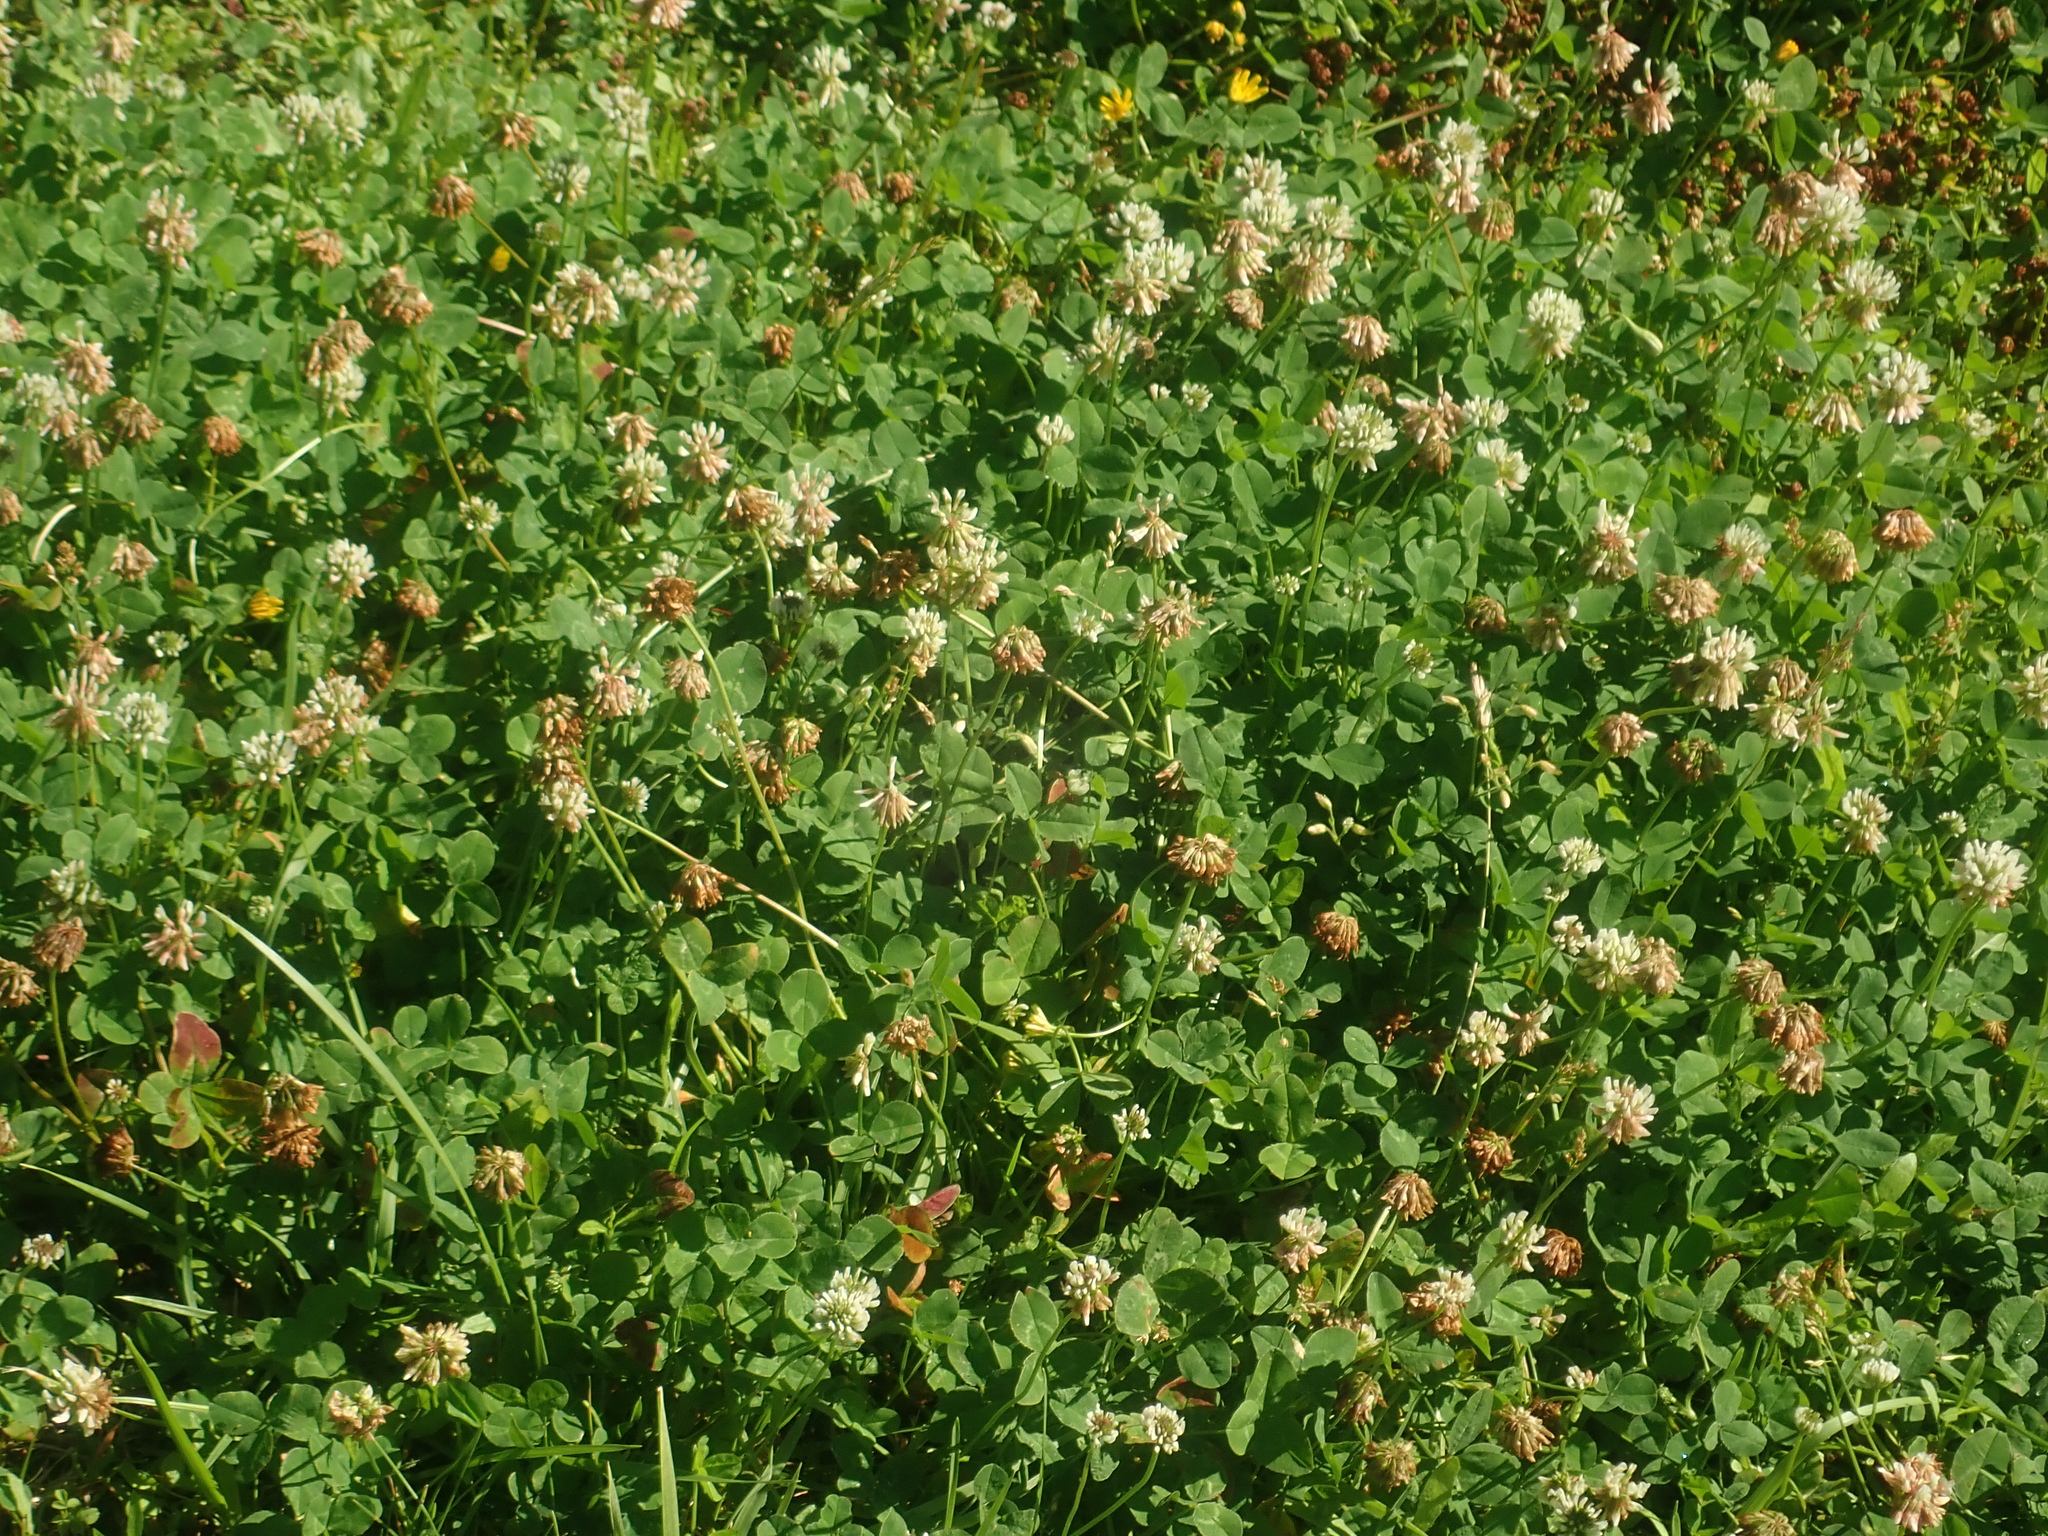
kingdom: Plantae
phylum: Tracheophyta
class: Magnoliopsida
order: Fabales
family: Fabaceae
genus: Trifolium
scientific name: Trifolium repens
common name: White clover
